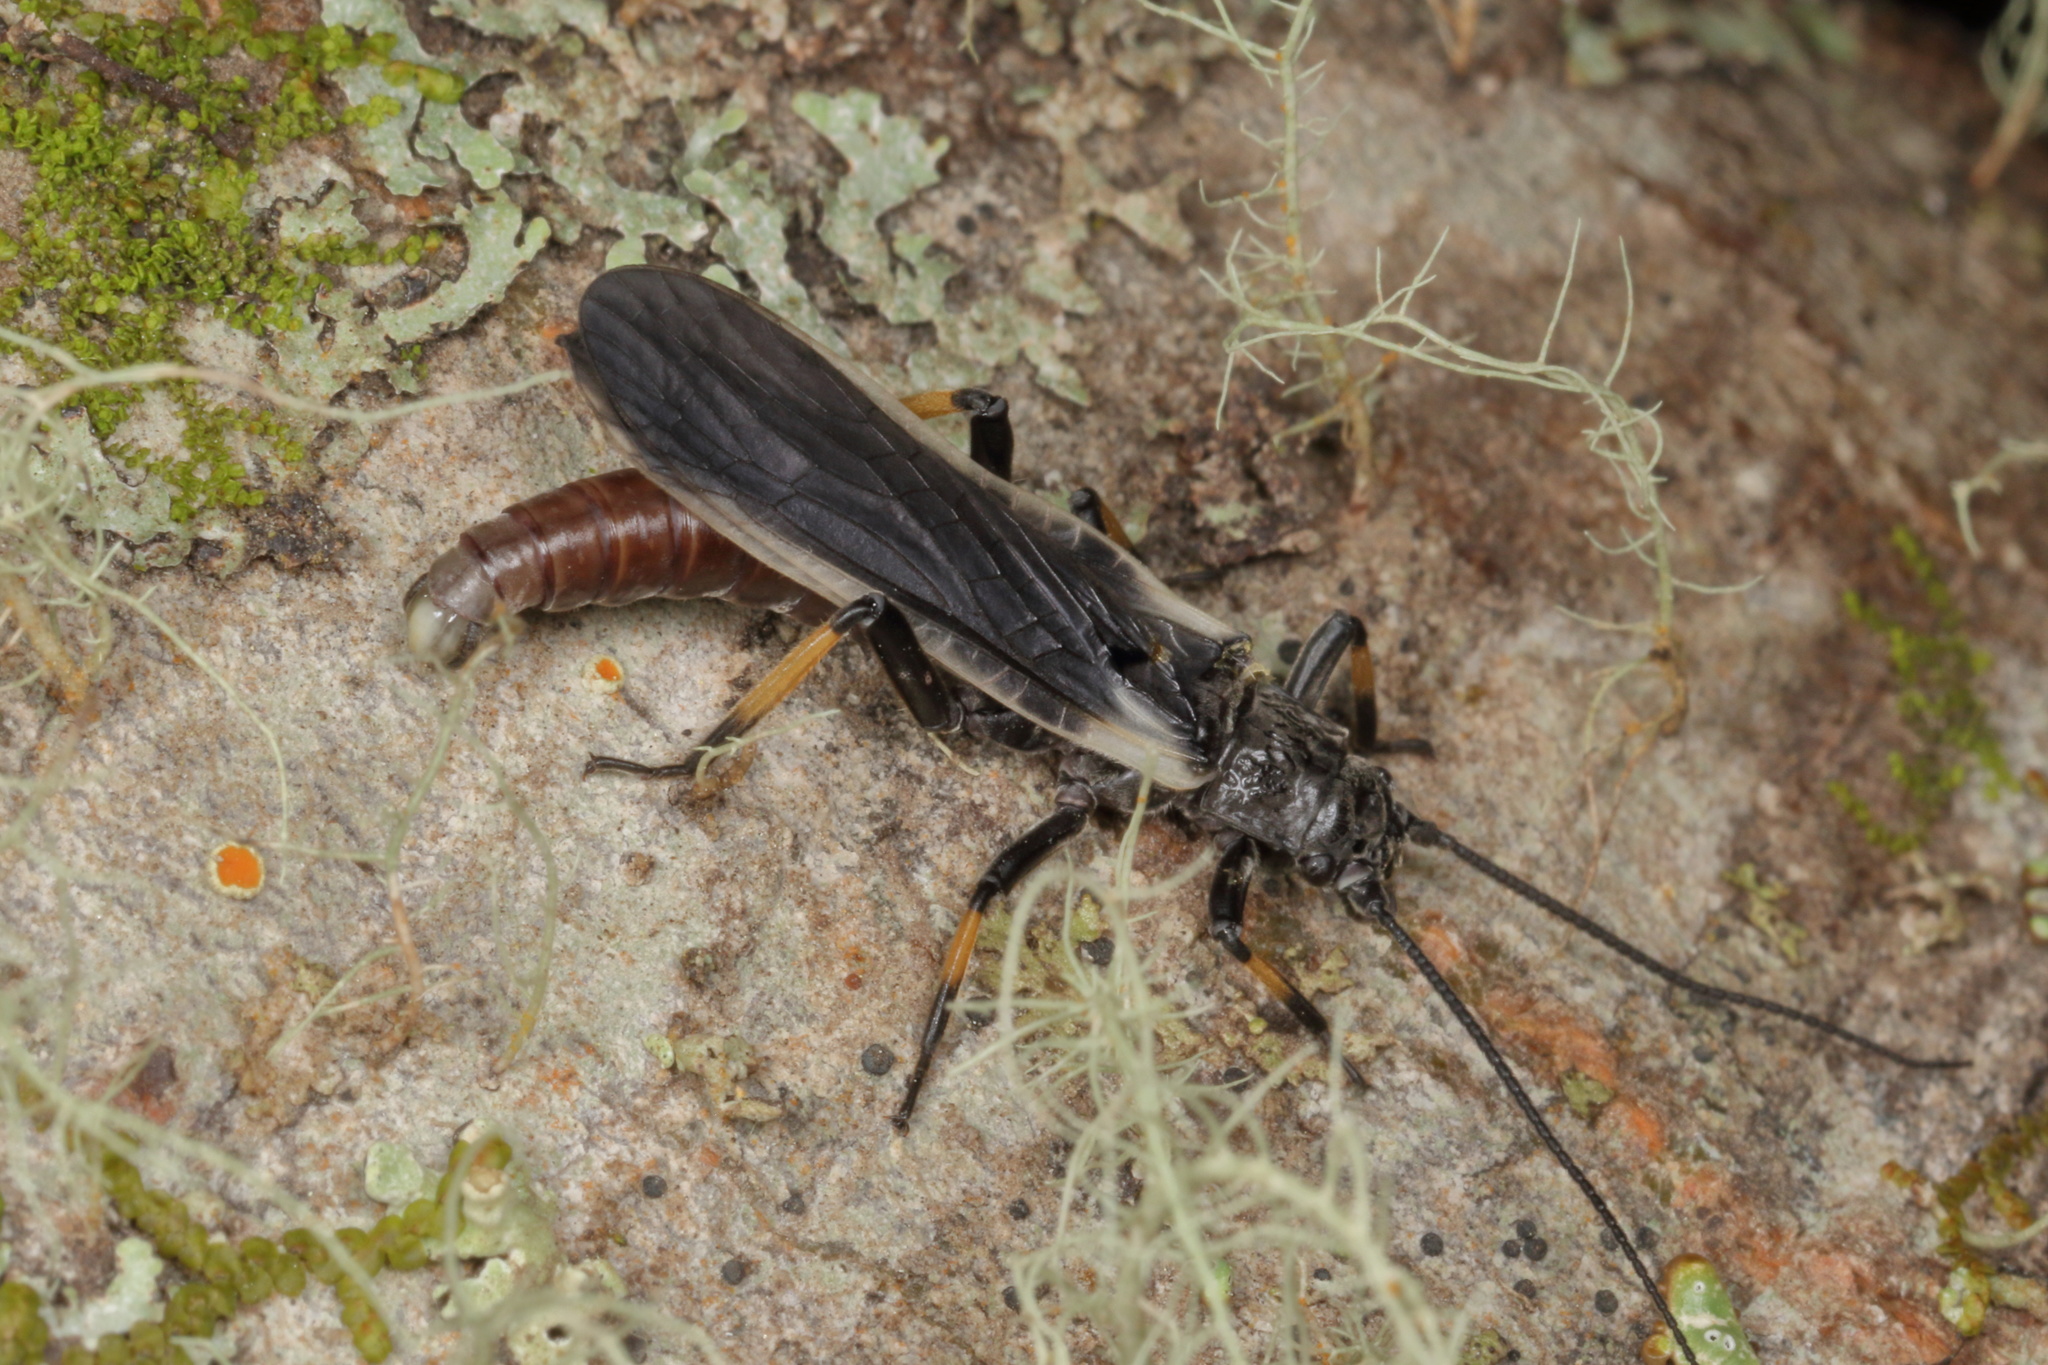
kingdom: Animalia
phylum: Arthropoda
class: Insecta
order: Plecoptera
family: Austroperlidae
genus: Austroperla
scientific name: Austroperla cyrene
